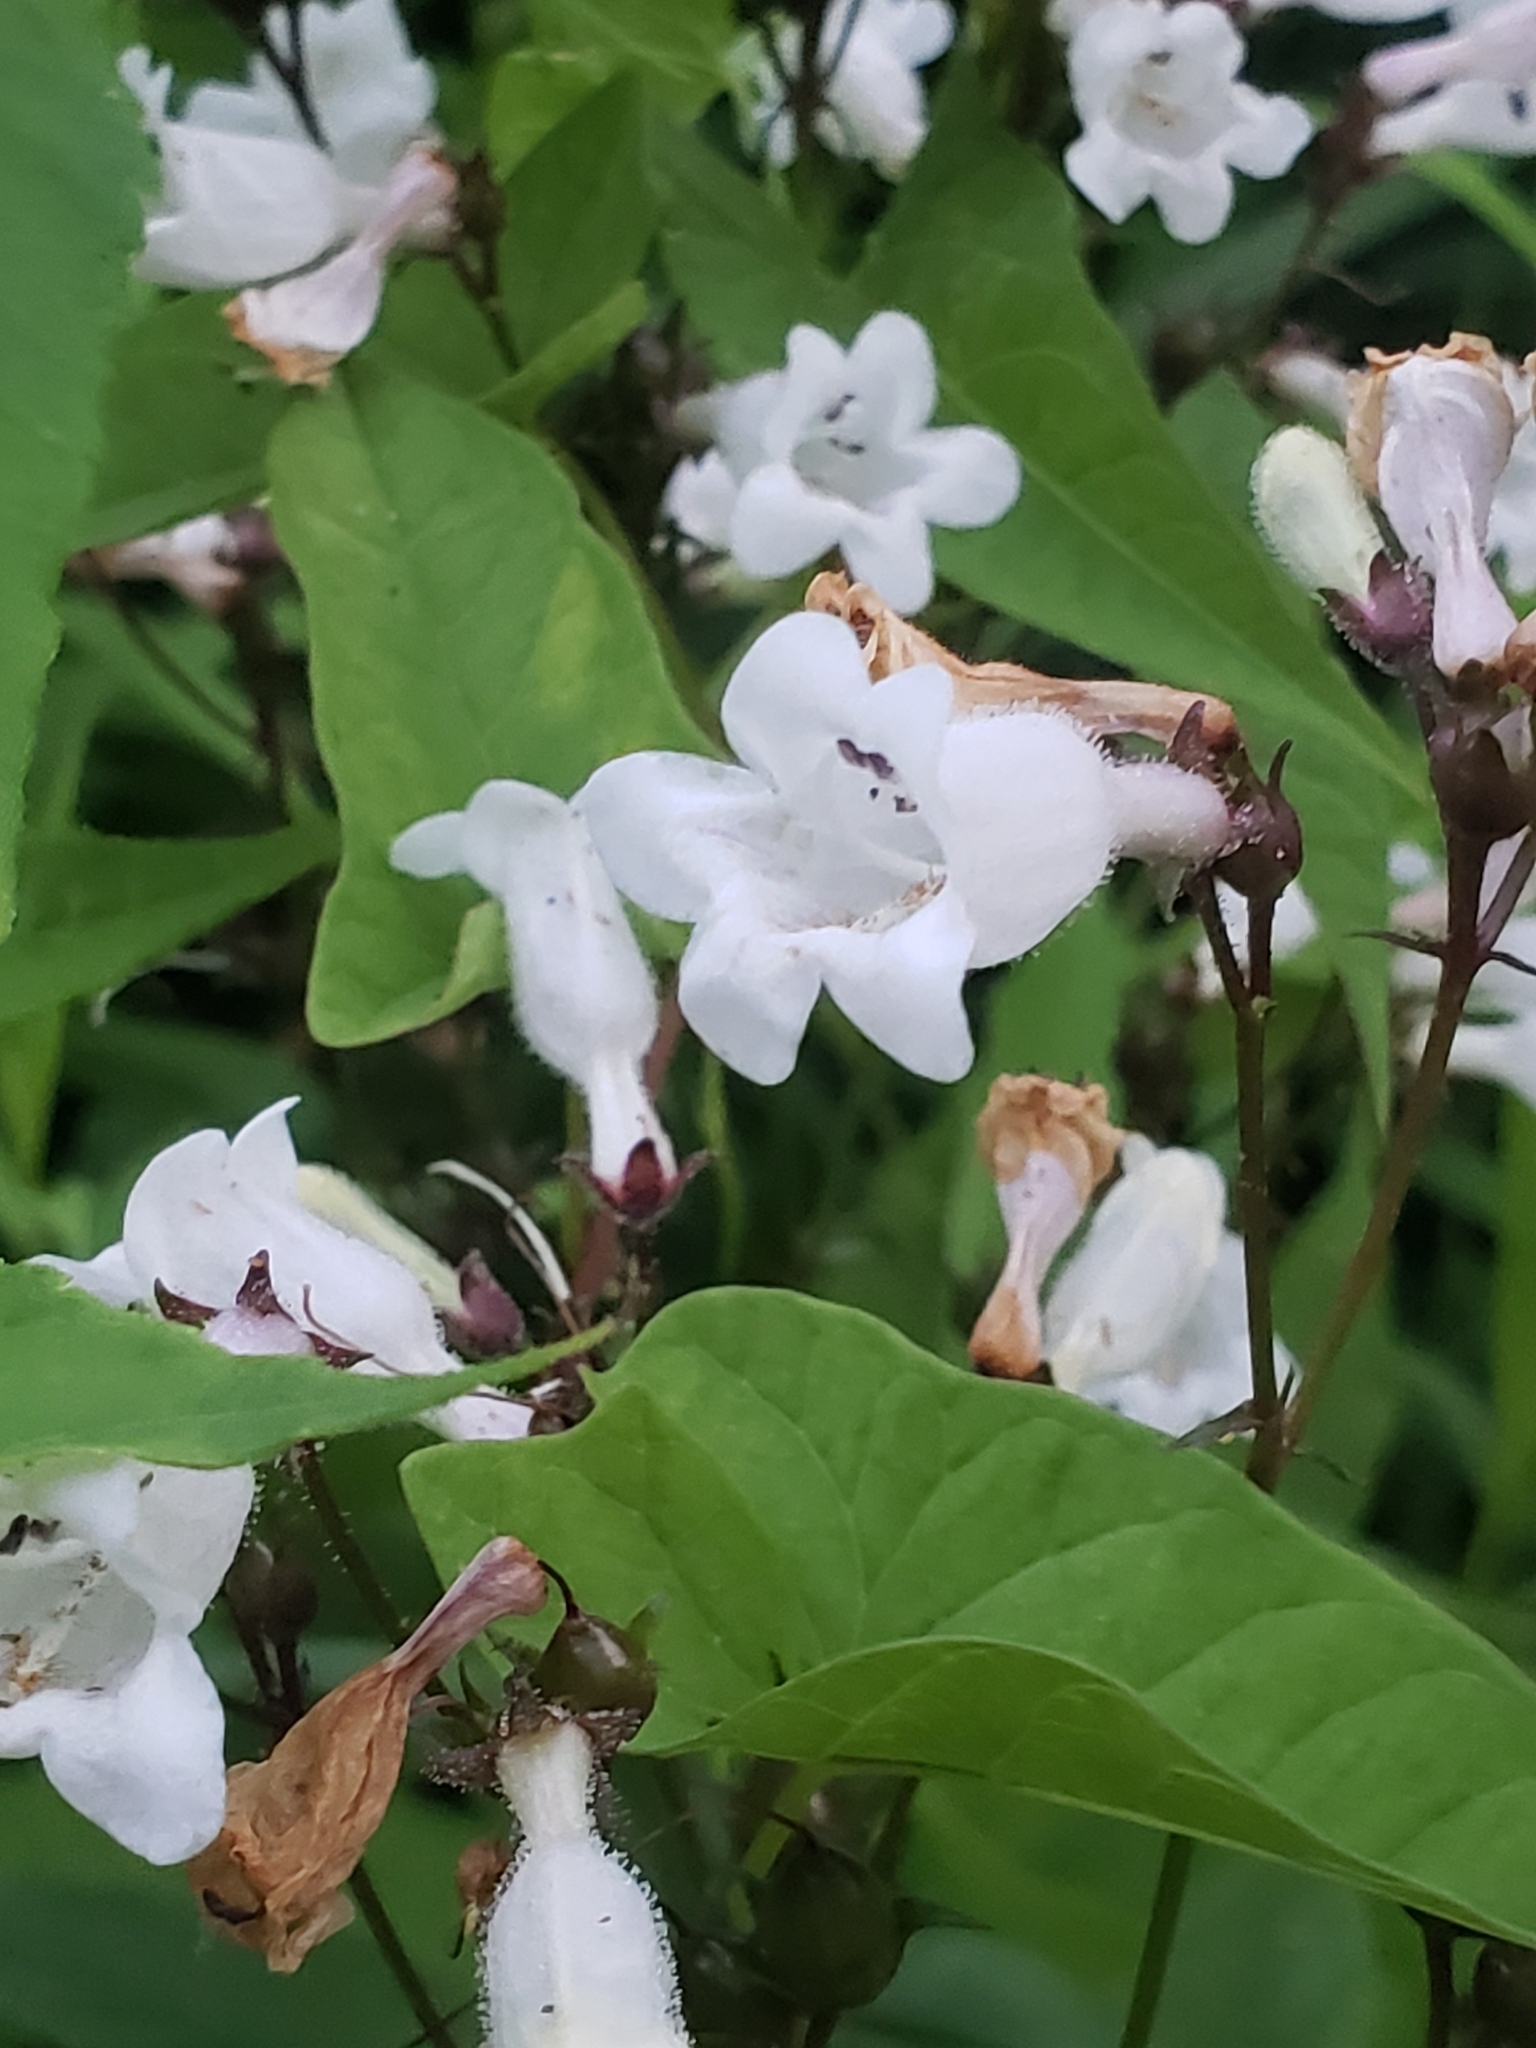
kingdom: Plantae
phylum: Tracheophyta
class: Magnoliopsida
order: Lamiales
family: Plantaginaceae
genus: Penstemon
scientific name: Penstemon digitalis
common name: Foxglove beardtongue
